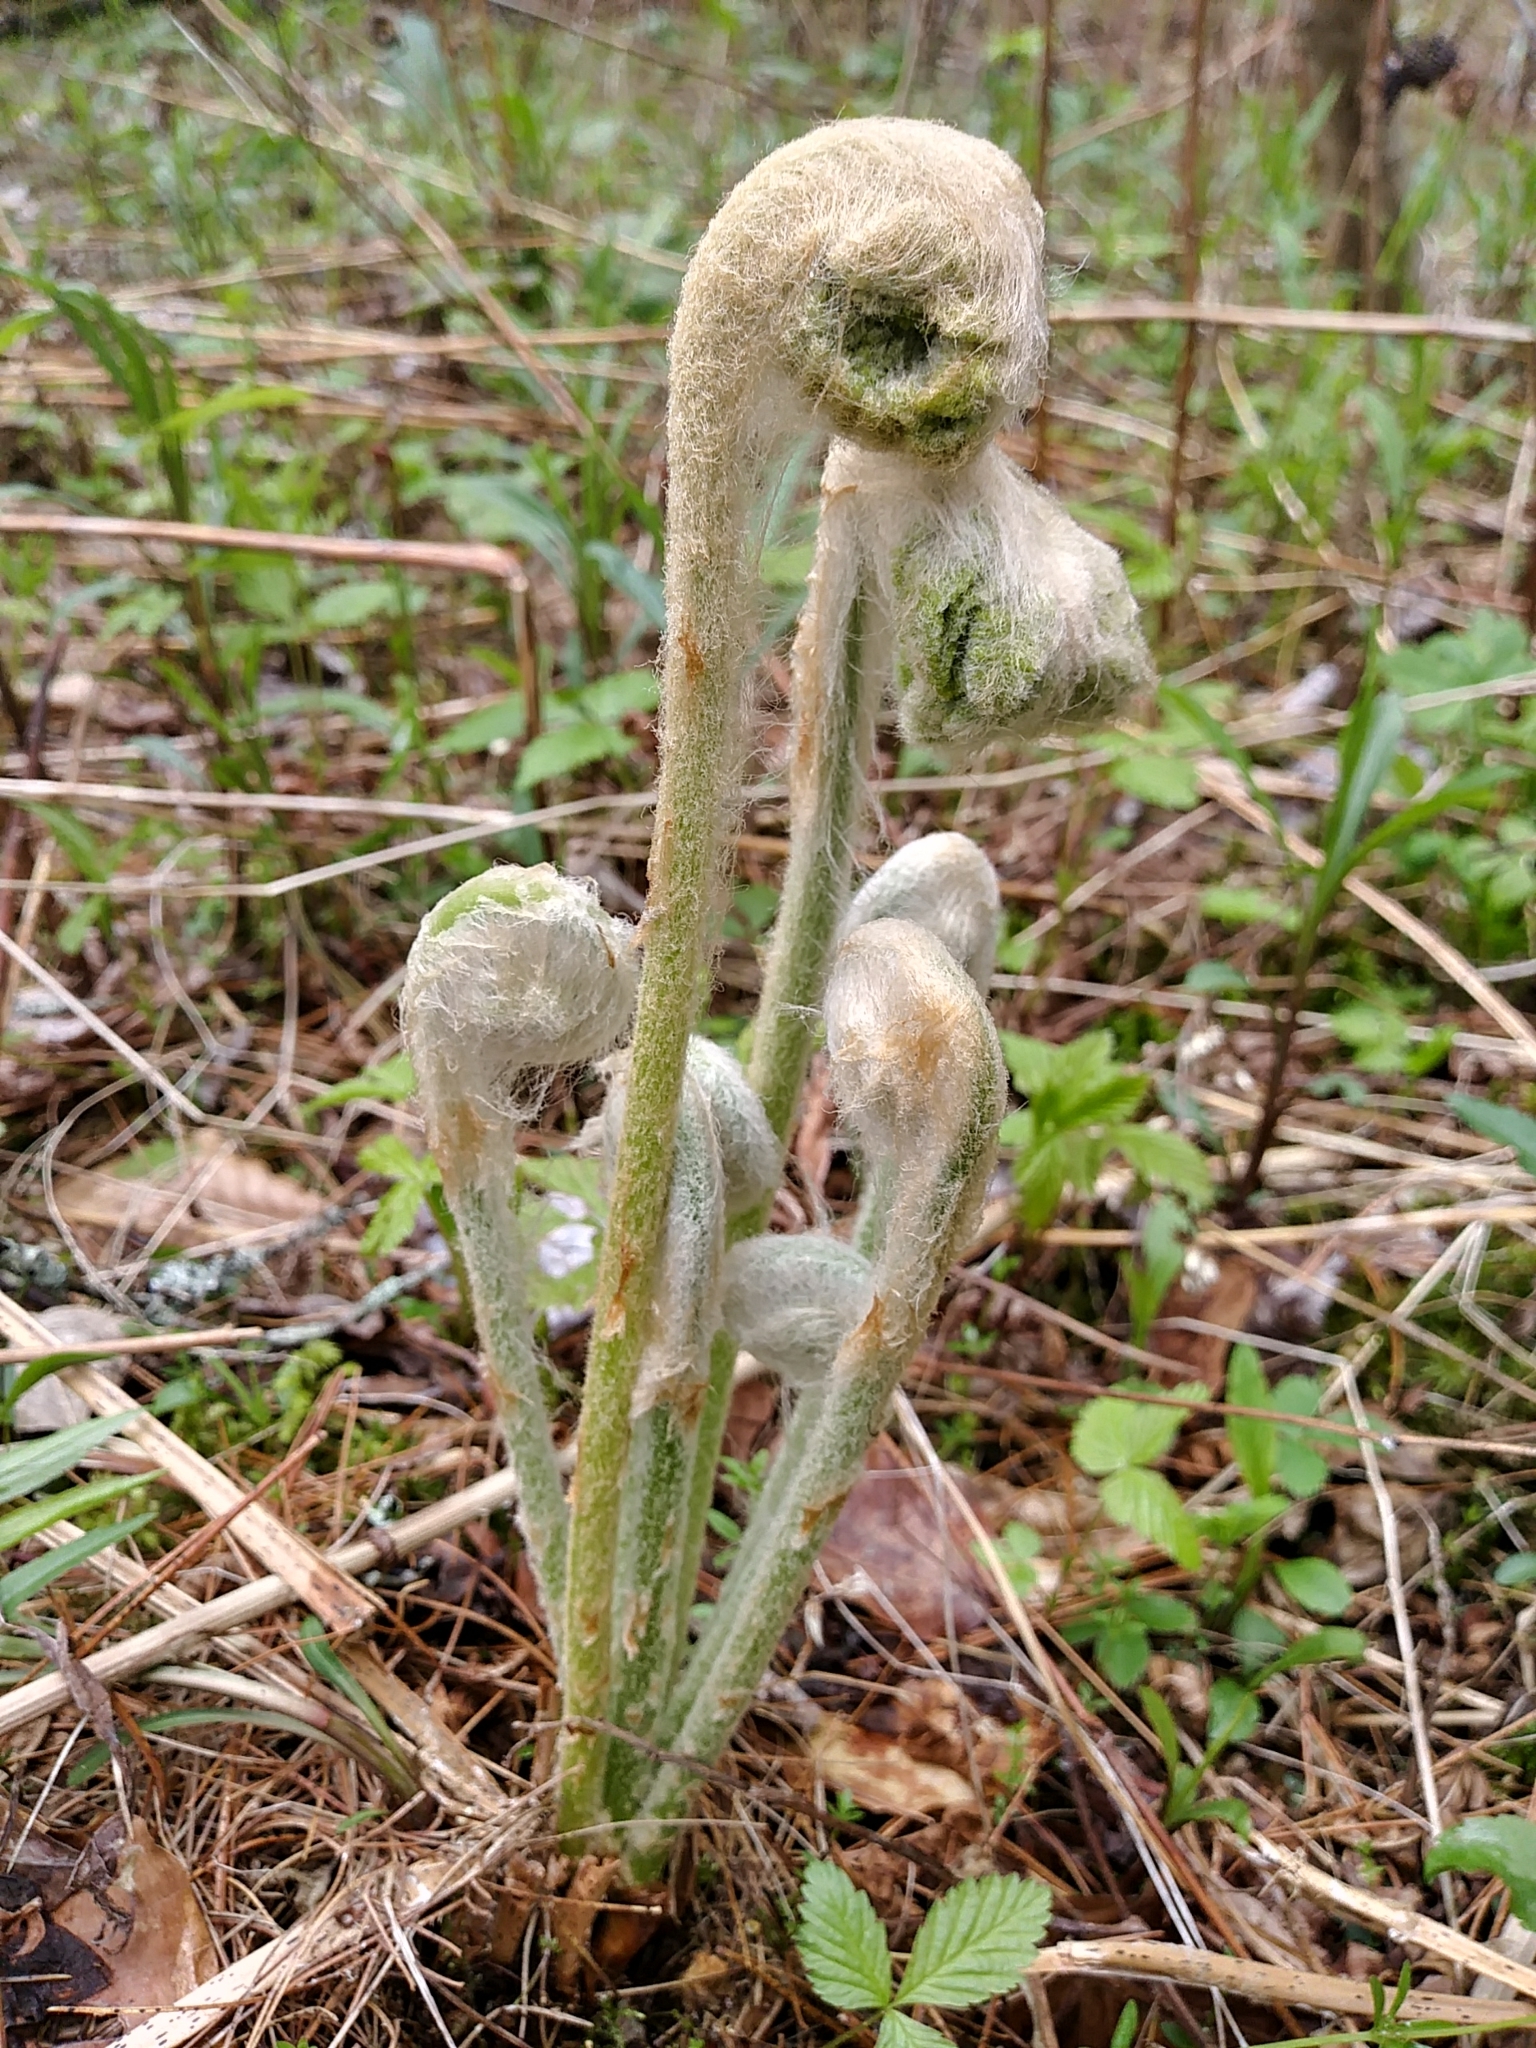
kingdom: Plantae
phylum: Tracheophyta
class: Polypodiopsida
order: Osmundales
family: Osmundaceae
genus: Osmundastrum
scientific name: Osmundastrum cinnamomeum
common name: Cinnamon fern
